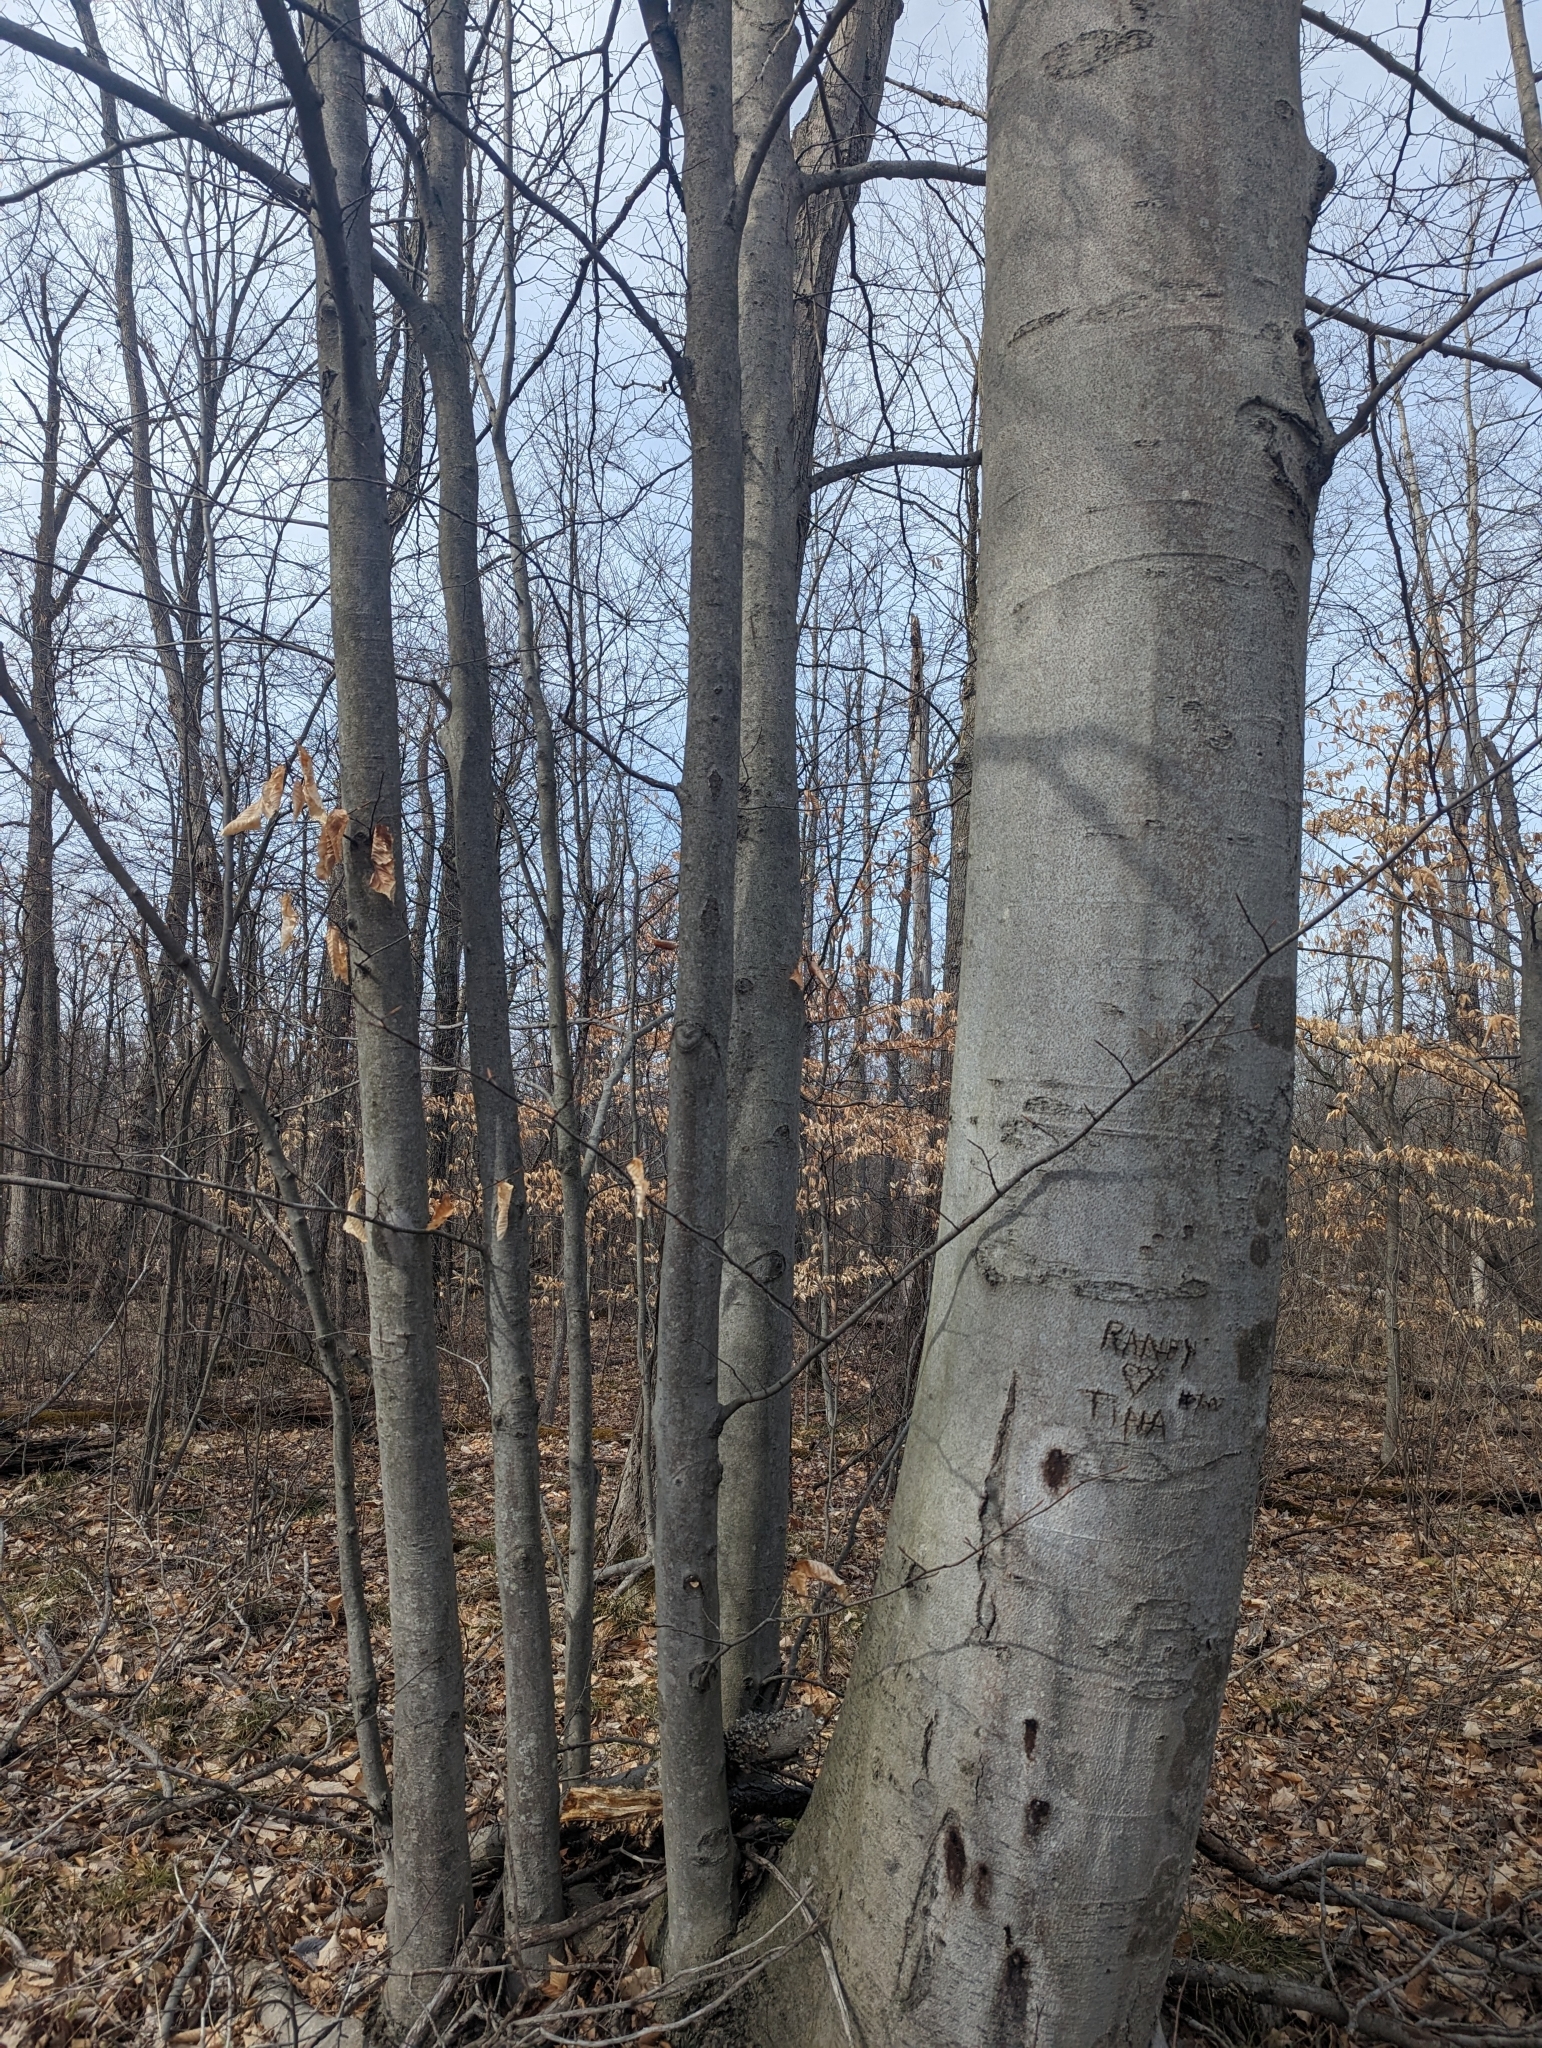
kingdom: Plantae
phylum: Tracheophyta
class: Magnoliopsida
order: Fagales
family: Fagaceae
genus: Fagus
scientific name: Fagus grandifolia
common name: American beech
